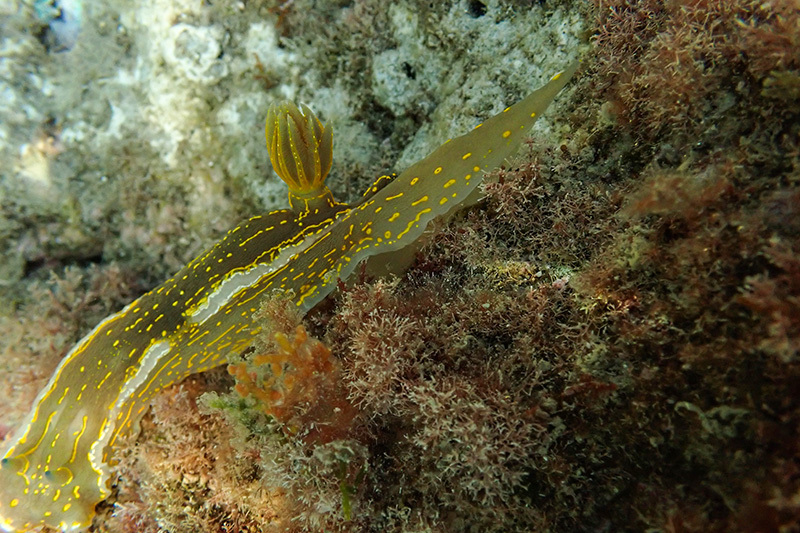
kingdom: Animalia
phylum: Mollusca
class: Gastropoda
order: Nudibranchia
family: Chromodorididae
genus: Felimare
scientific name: Felimare picta
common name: Giant doris
